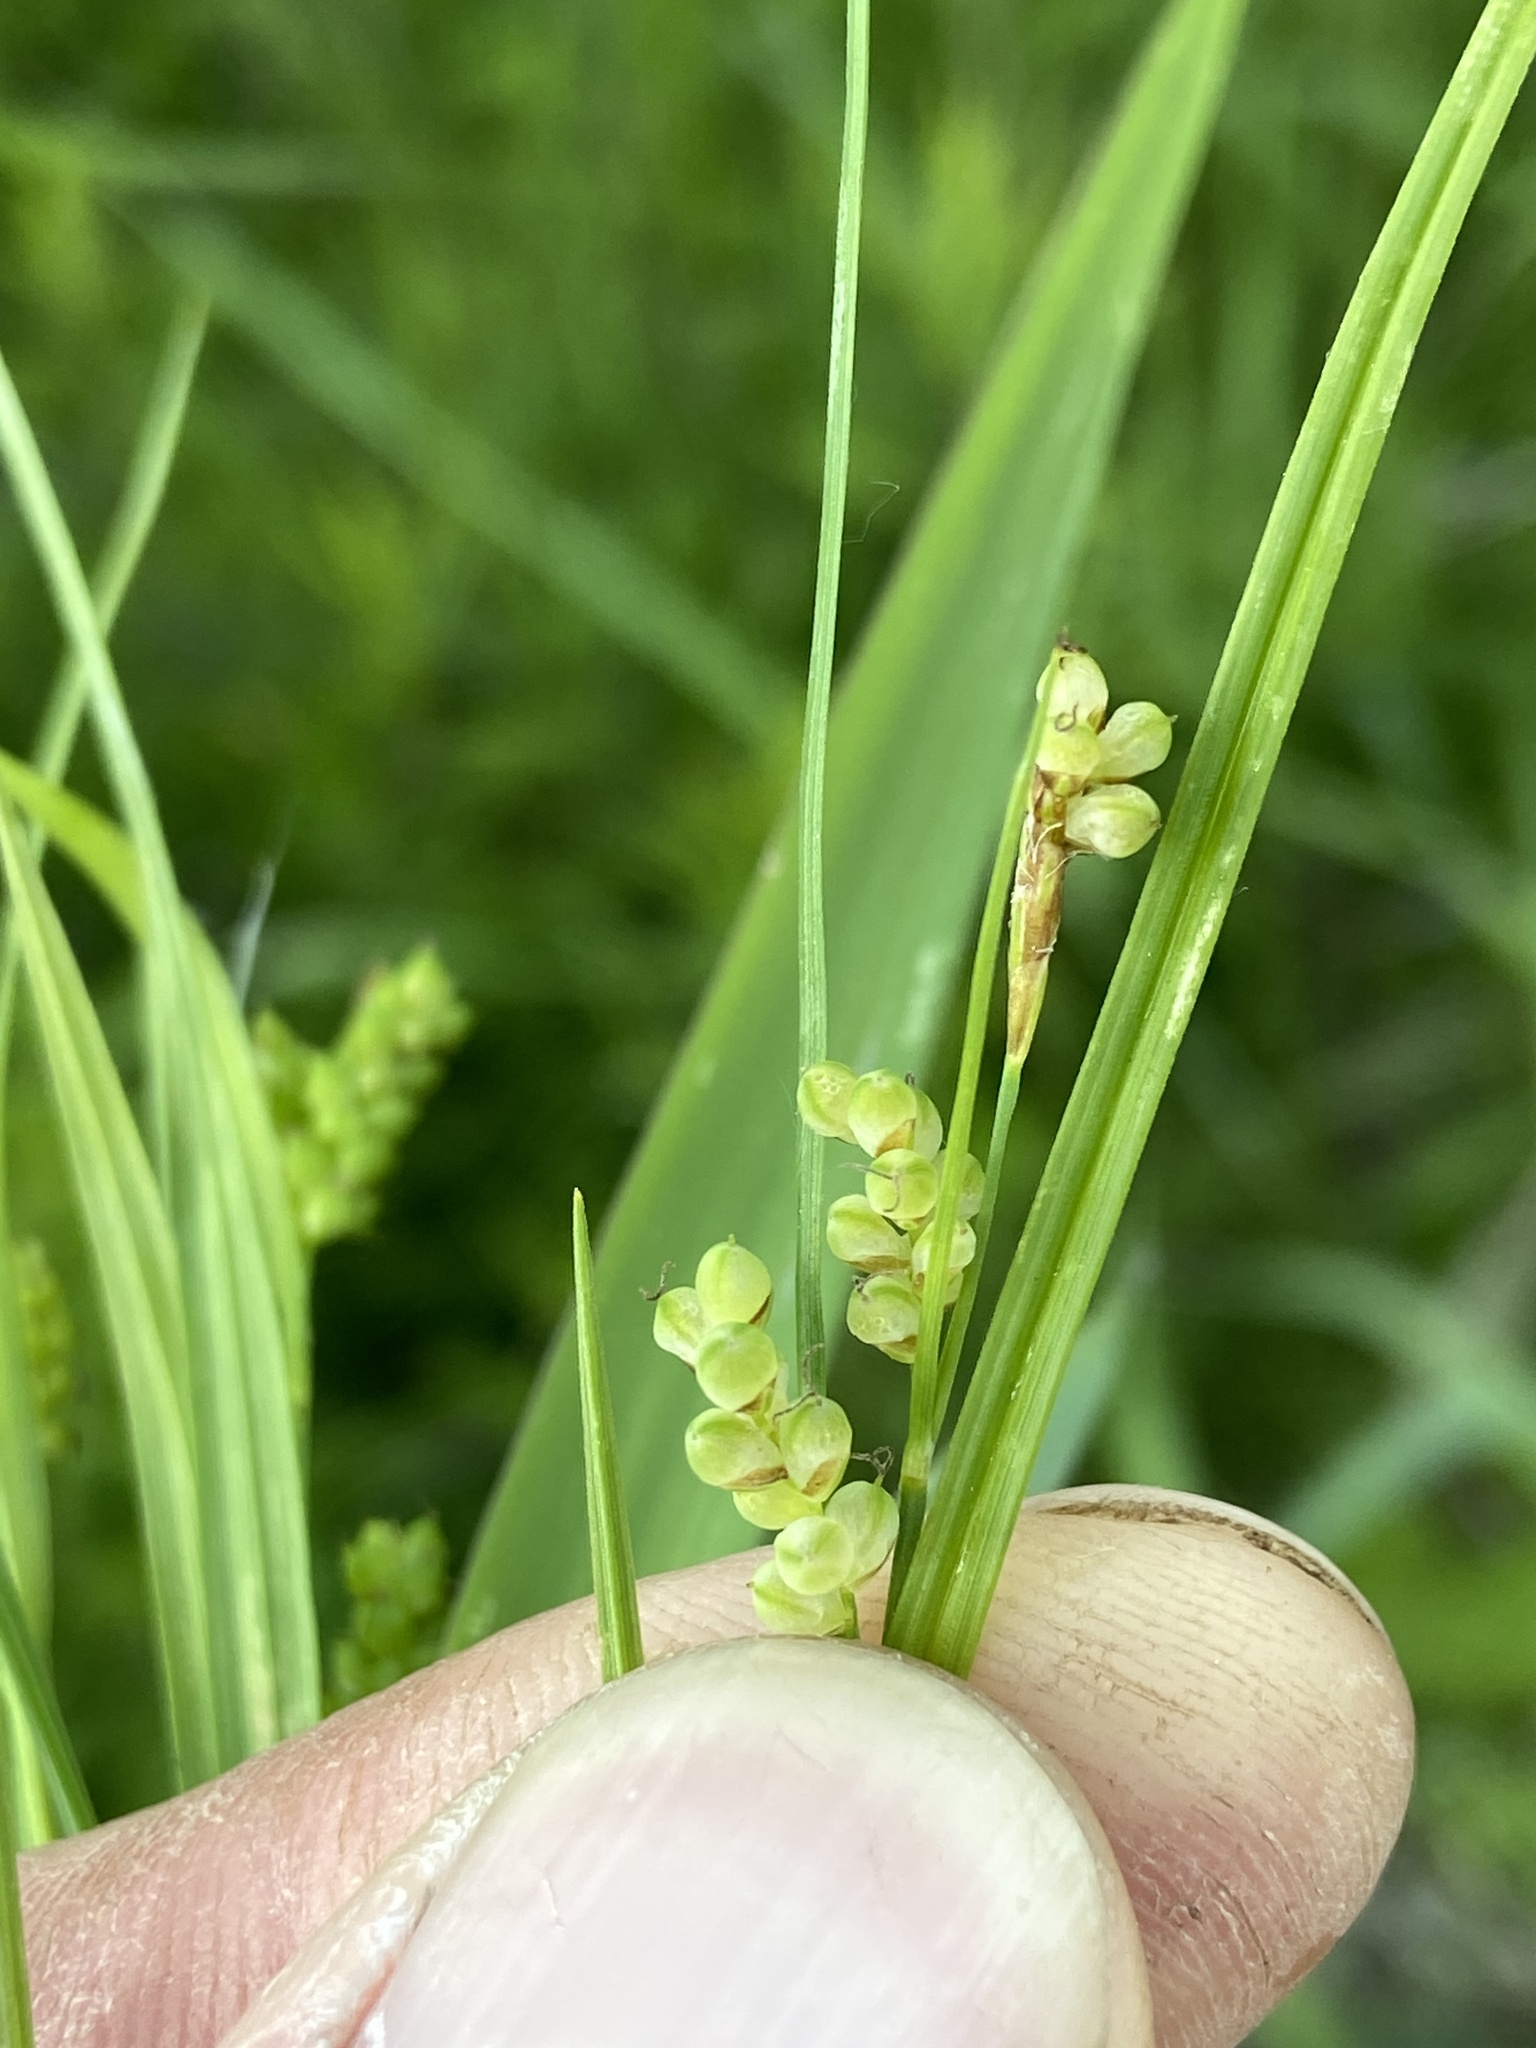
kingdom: Plantae
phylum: Tracheophyta
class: Liliopsida
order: Poales
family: Cyperaceae
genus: Carex
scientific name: Carex aurea
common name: Golden sedge
